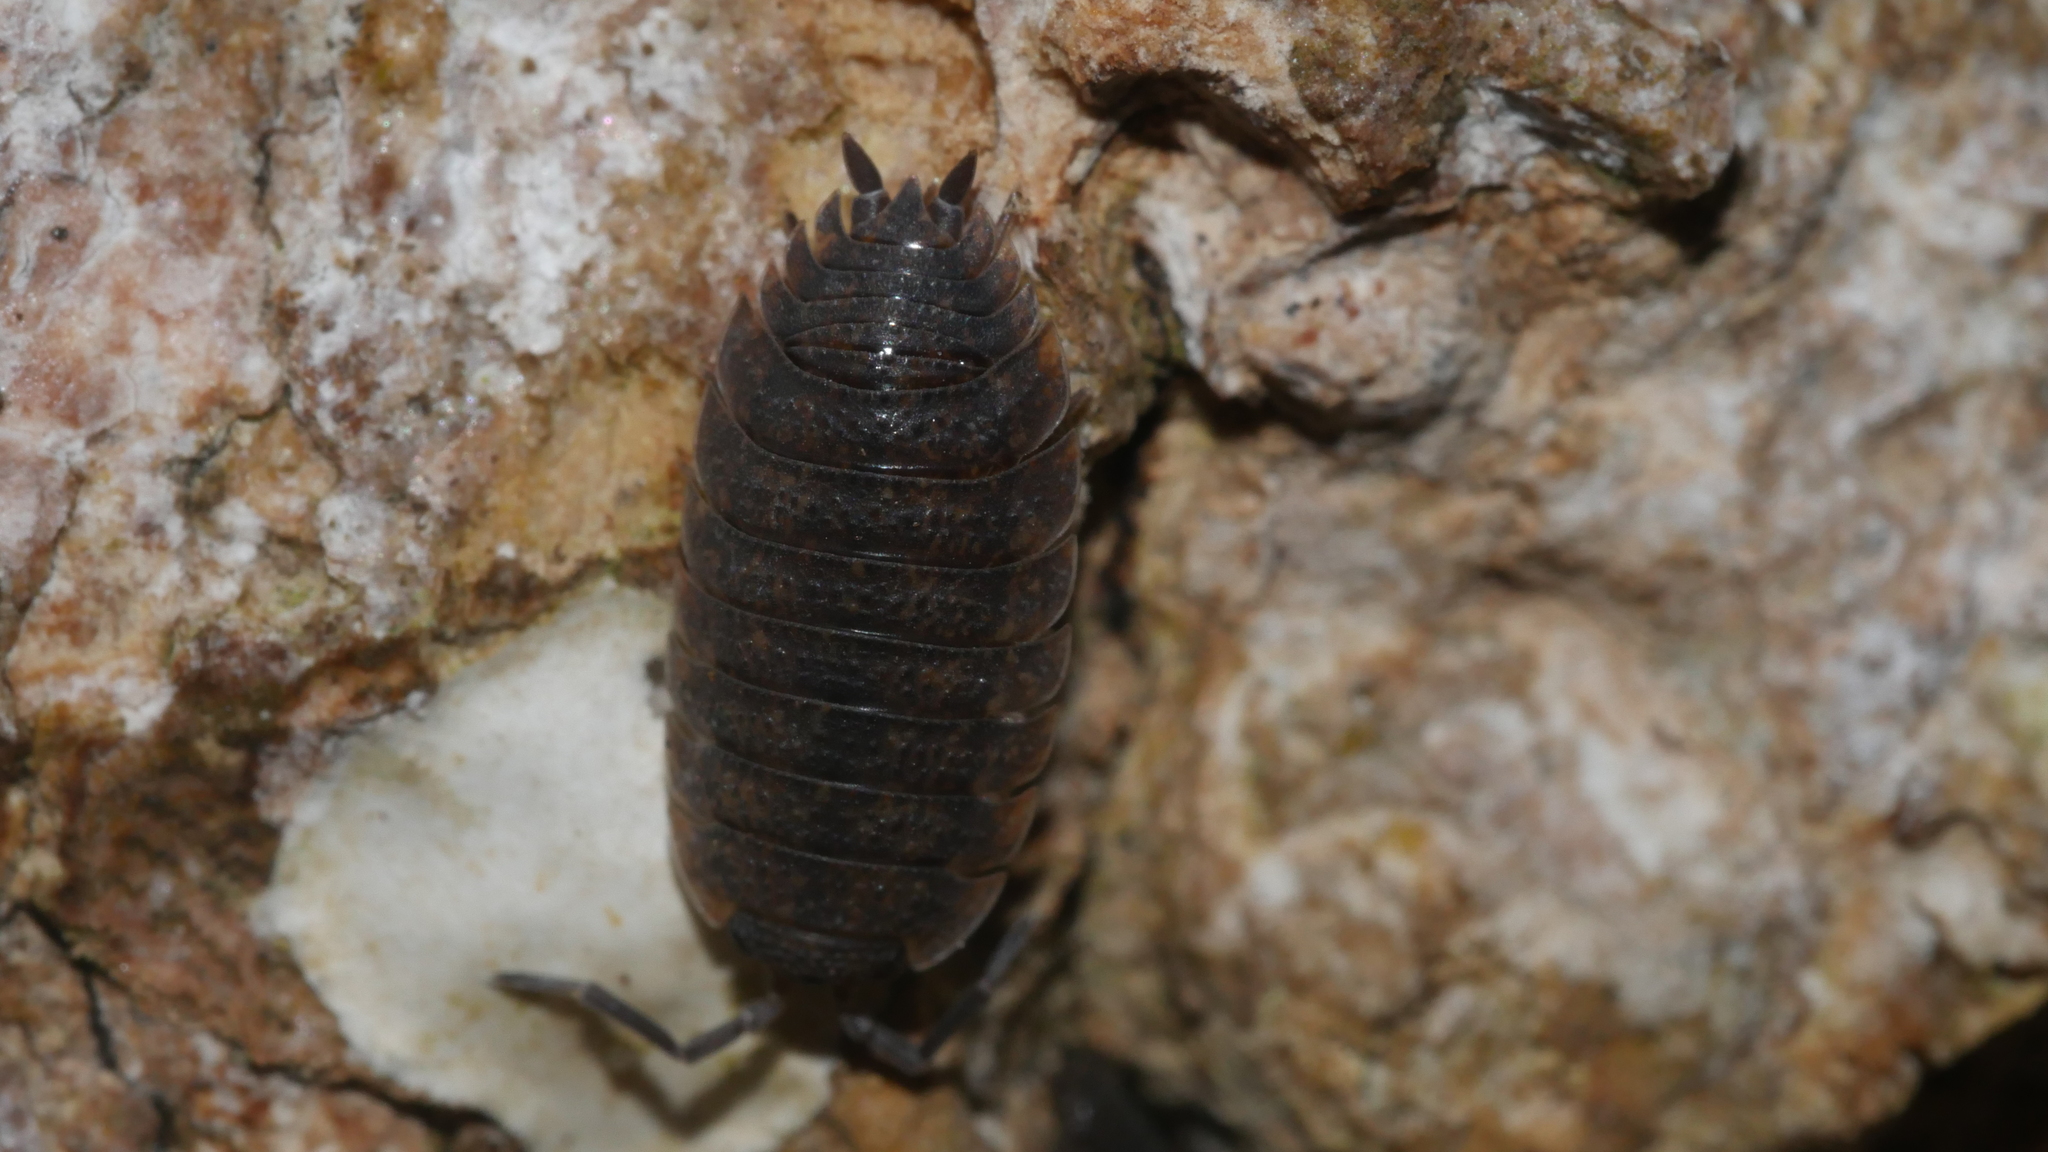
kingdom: Animalia
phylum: Arthropoda
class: Malacostraca
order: Isopoda
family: Porcellionidae
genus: Porcellio
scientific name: Porcellio scaber
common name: Common rough woodlouse
